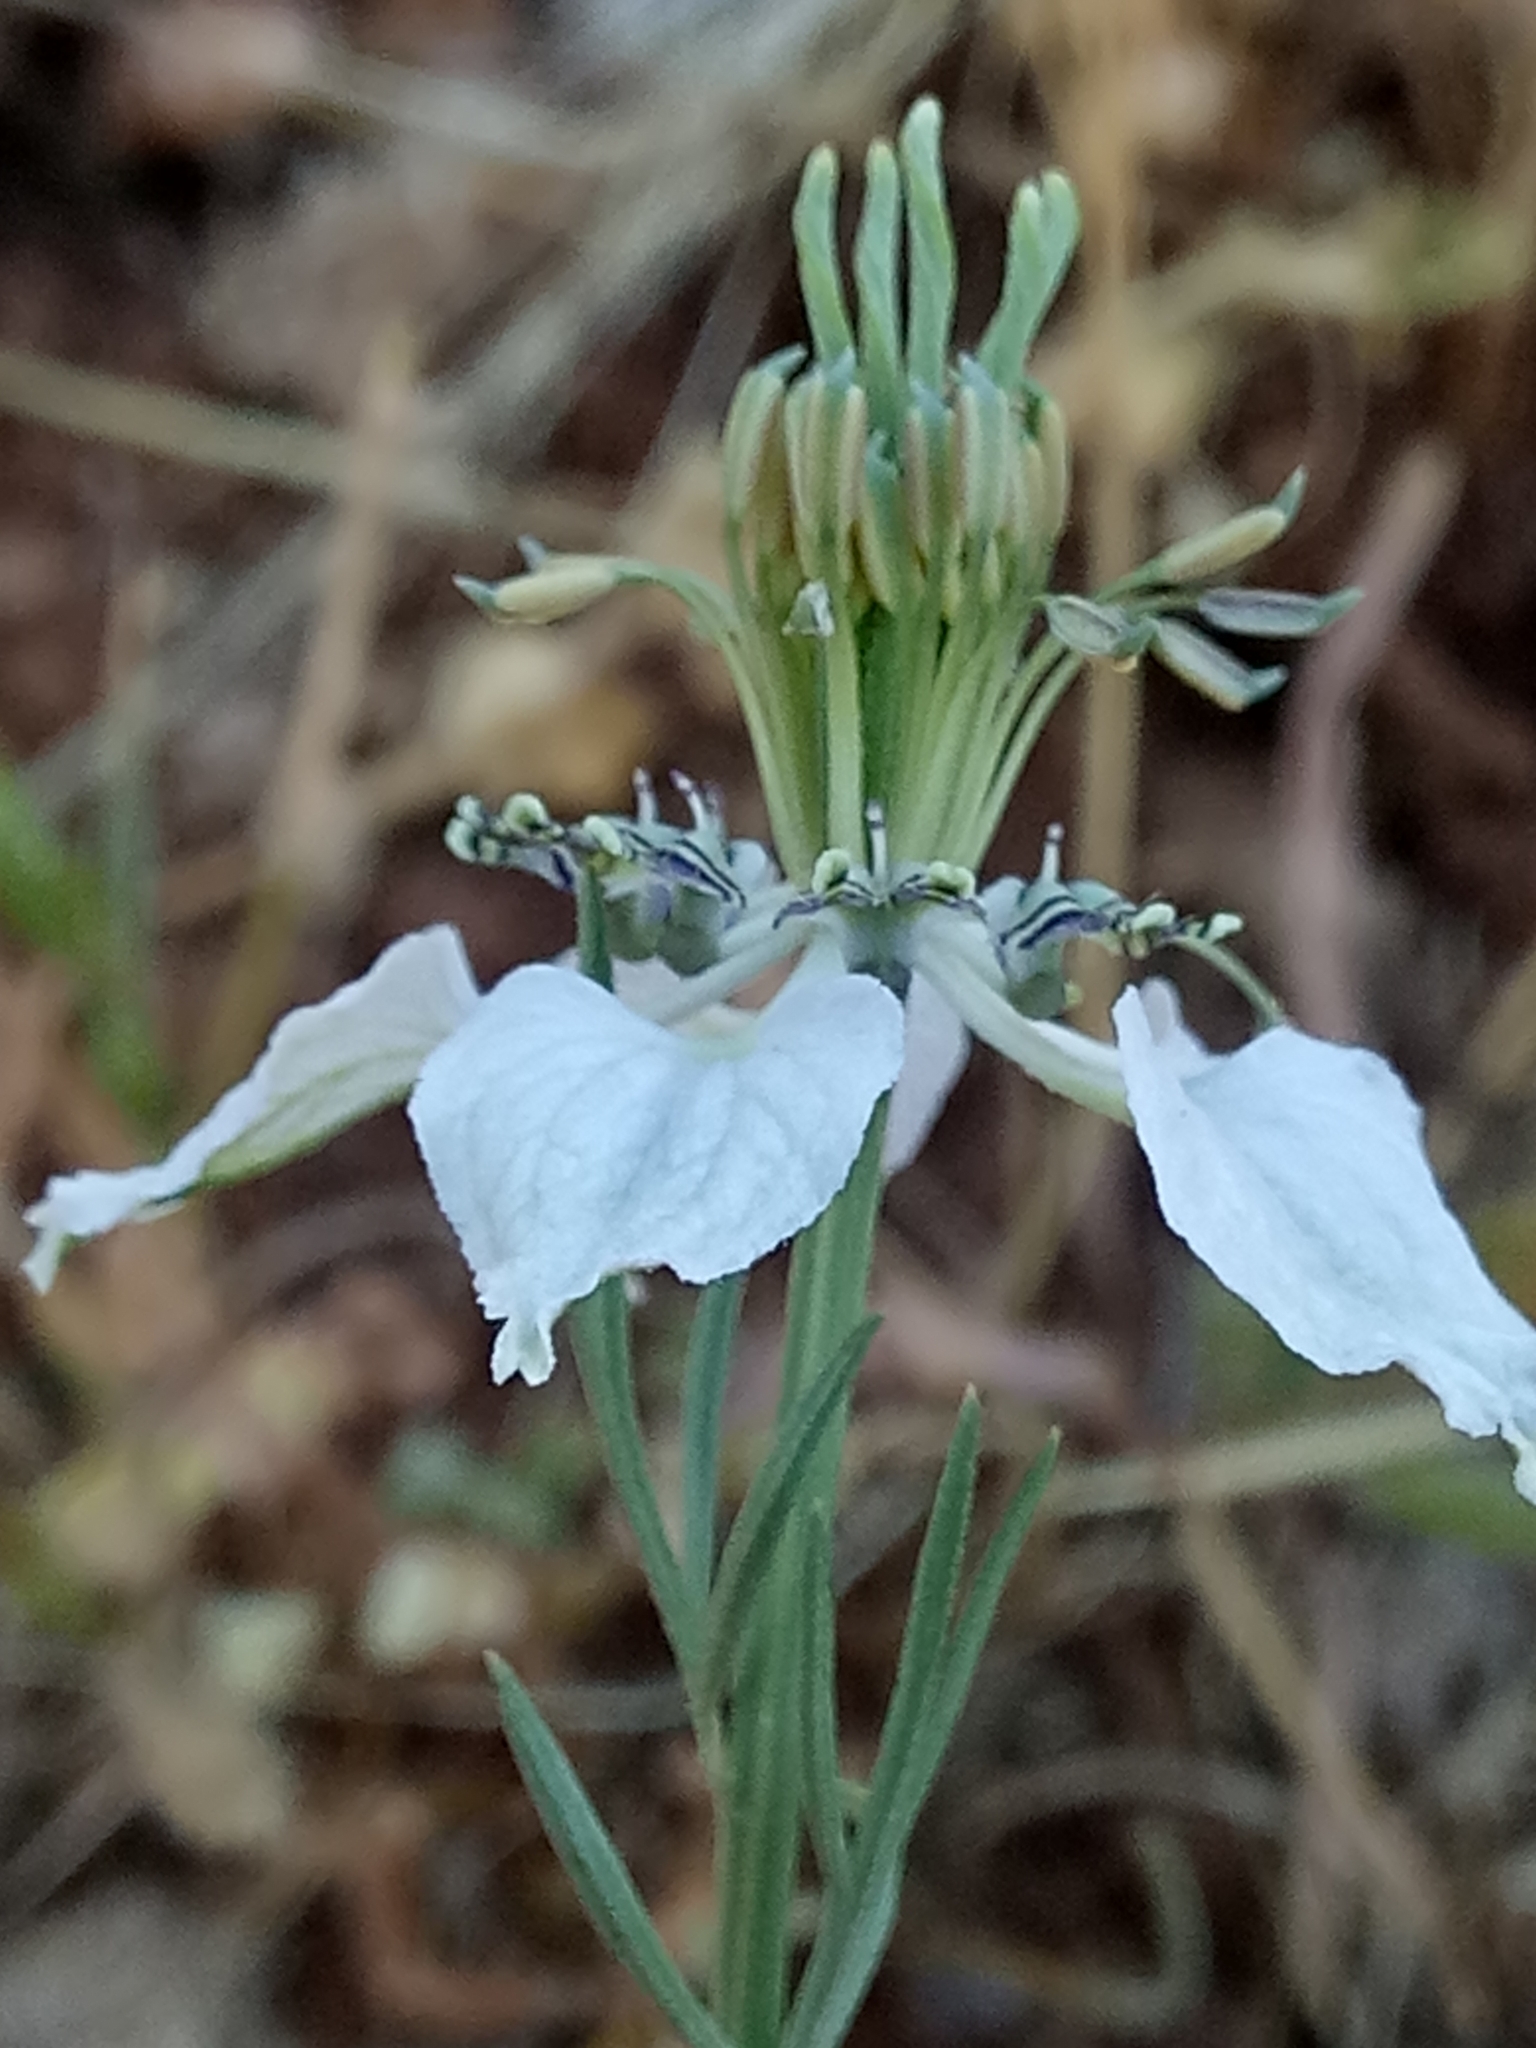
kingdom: Plantae
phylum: Tracheophyta
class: Magnoliopsida
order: Ranunculales
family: Ranunculaceae
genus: Nigella
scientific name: Nigella arvensis
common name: Wild fennel-flower
